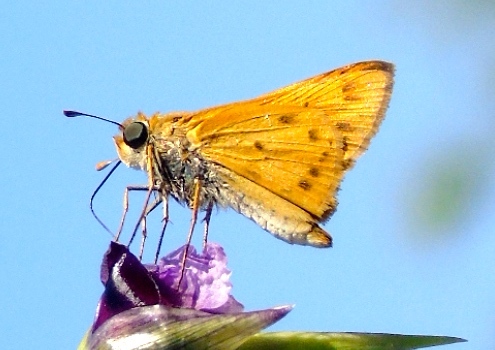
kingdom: Animalia
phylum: Arthropoda
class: Insecta
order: Lepidoptera
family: Hesperiidae
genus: Hylephila
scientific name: Hylephila phyleus
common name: Fiery skipper
